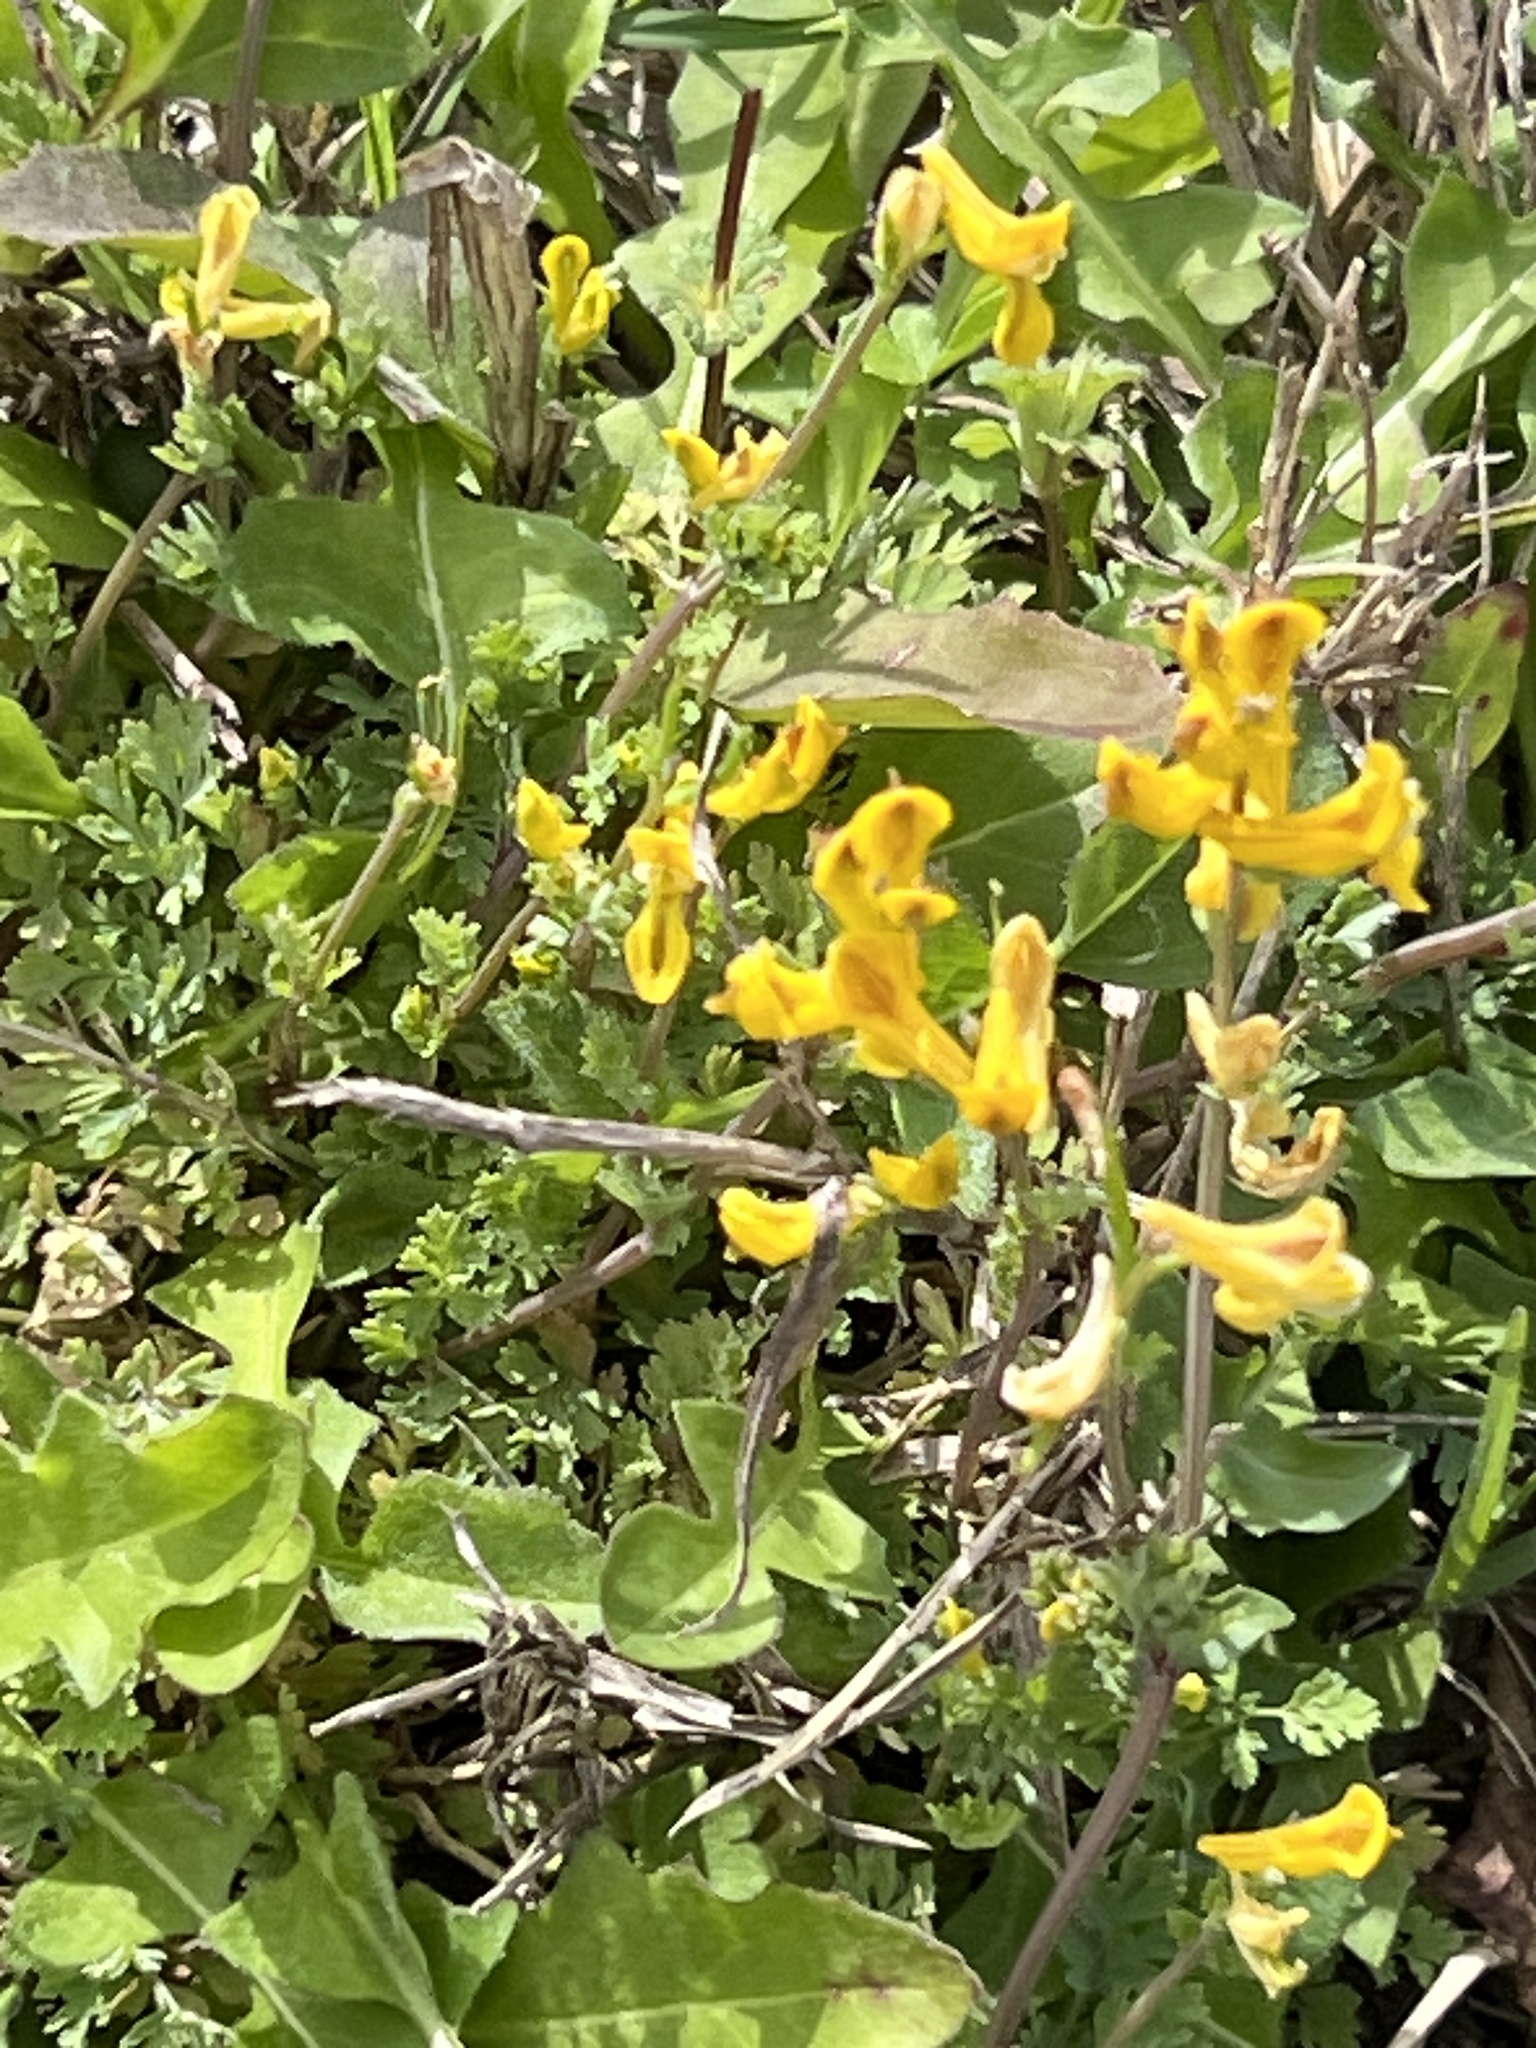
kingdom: Plantae
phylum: Tracheophyta
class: Magnoliopsida
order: Ranunculales
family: Papaveraceae
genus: Corydalis
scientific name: Corydalis aurea
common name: Golden corydalis
